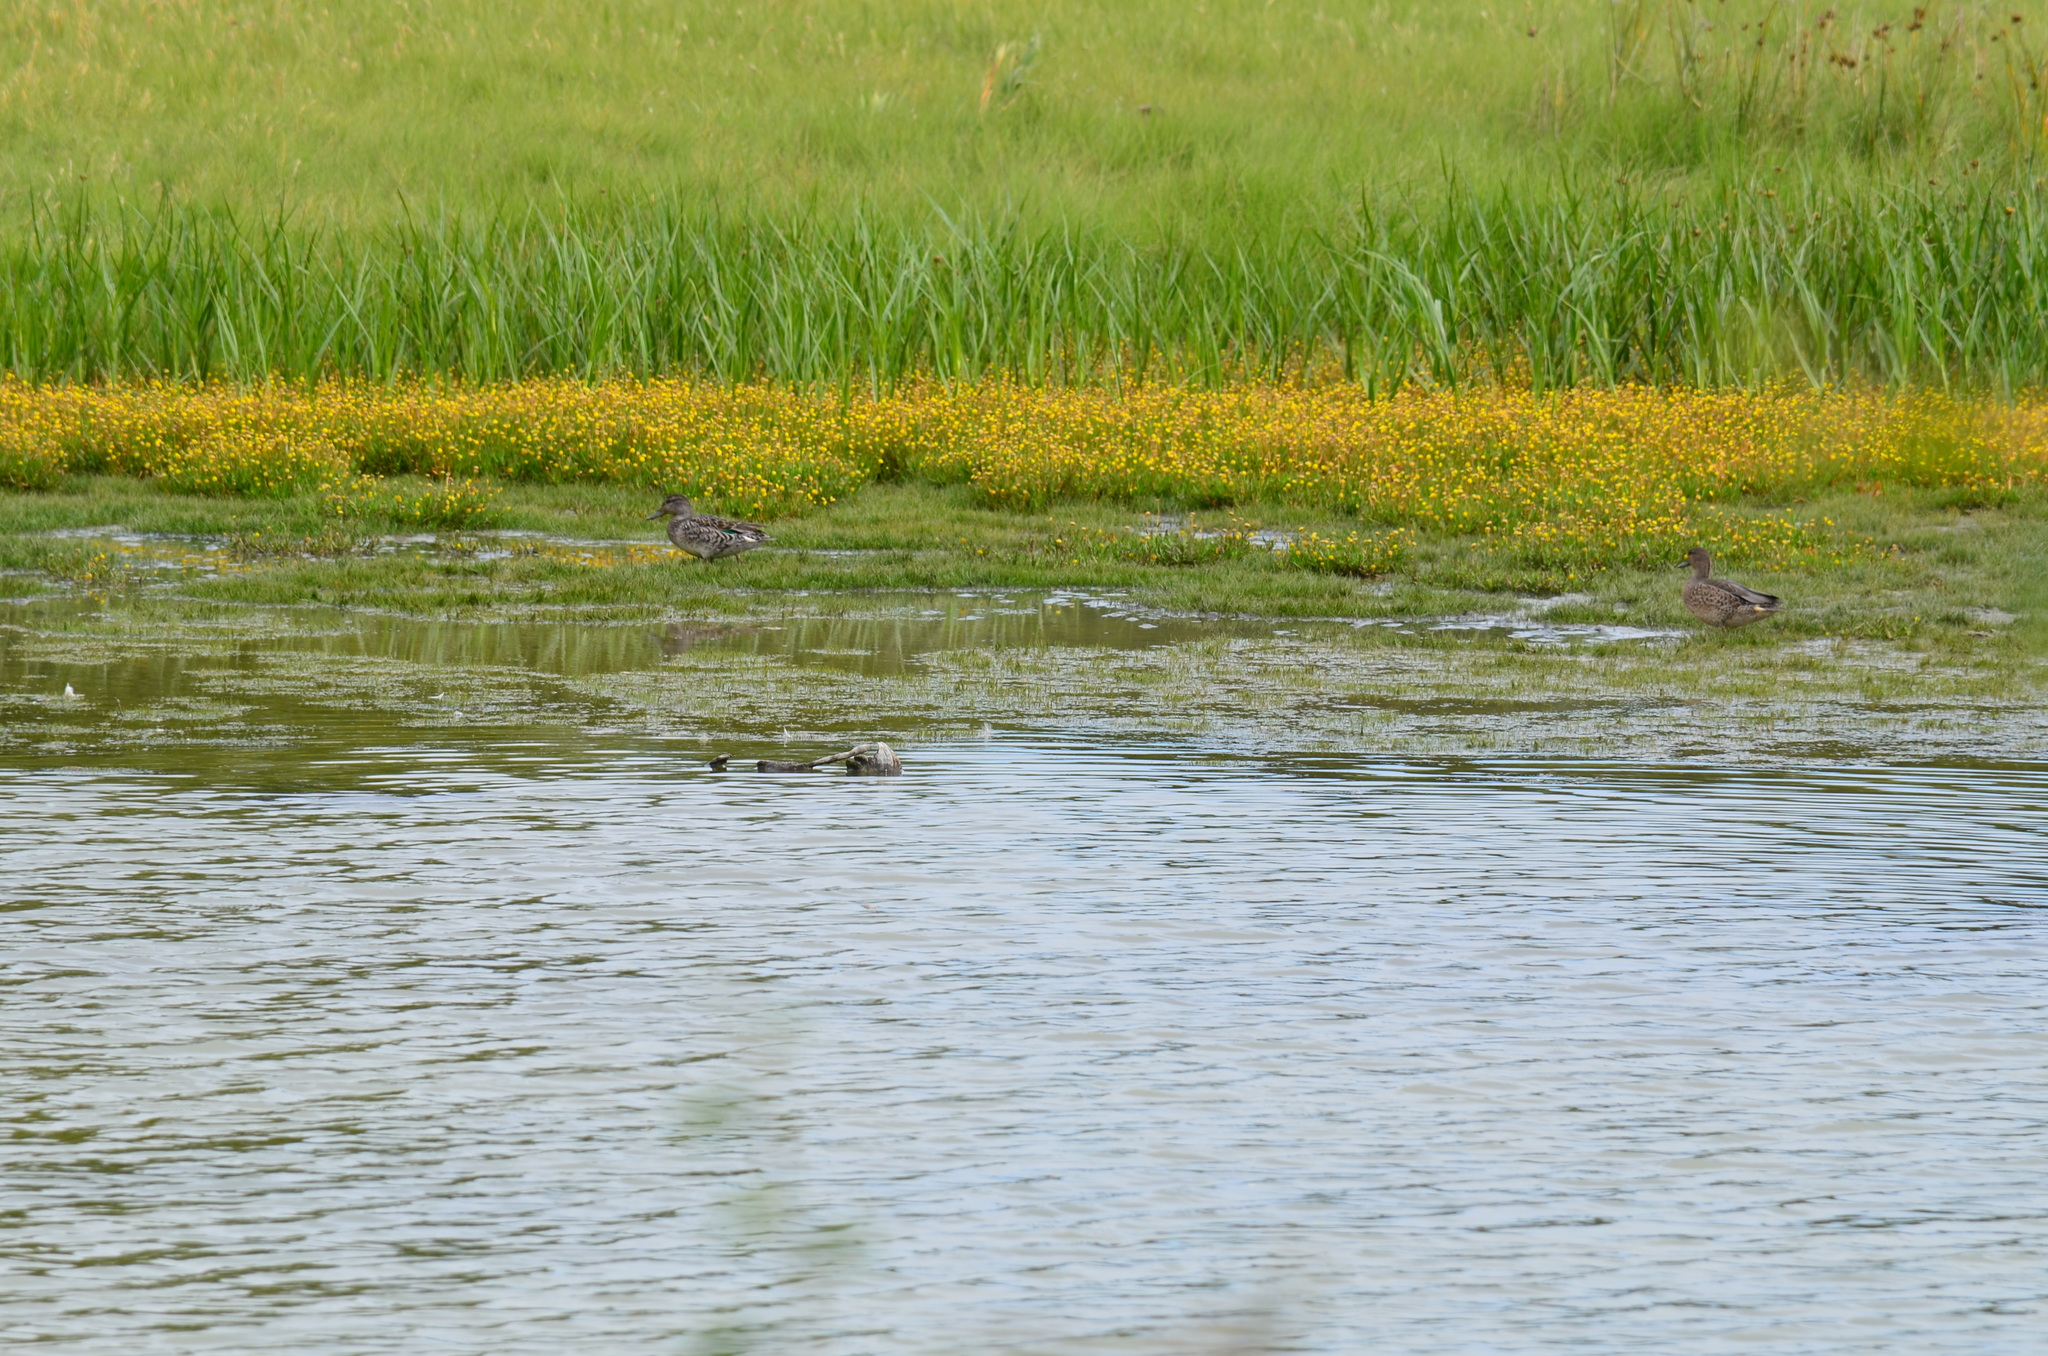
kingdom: Animalia
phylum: Chordata
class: Aves
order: Anseriformes
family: Anatidae
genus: Anas
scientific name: Anas crecca
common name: Eurasian teal
